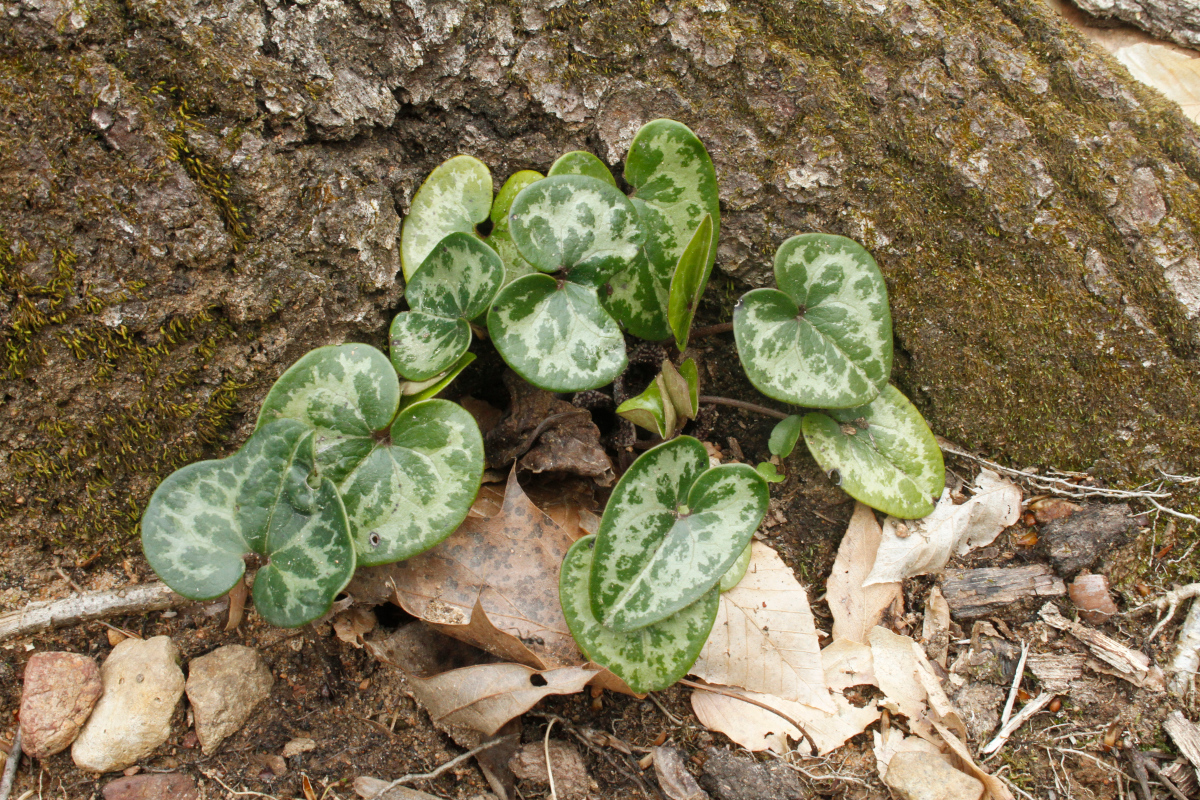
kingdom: Plantae
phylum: Tracheophyta
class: Magnoliopsida
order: Piperales
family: Aristolochiaceae
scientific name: Aristolochiaceae
